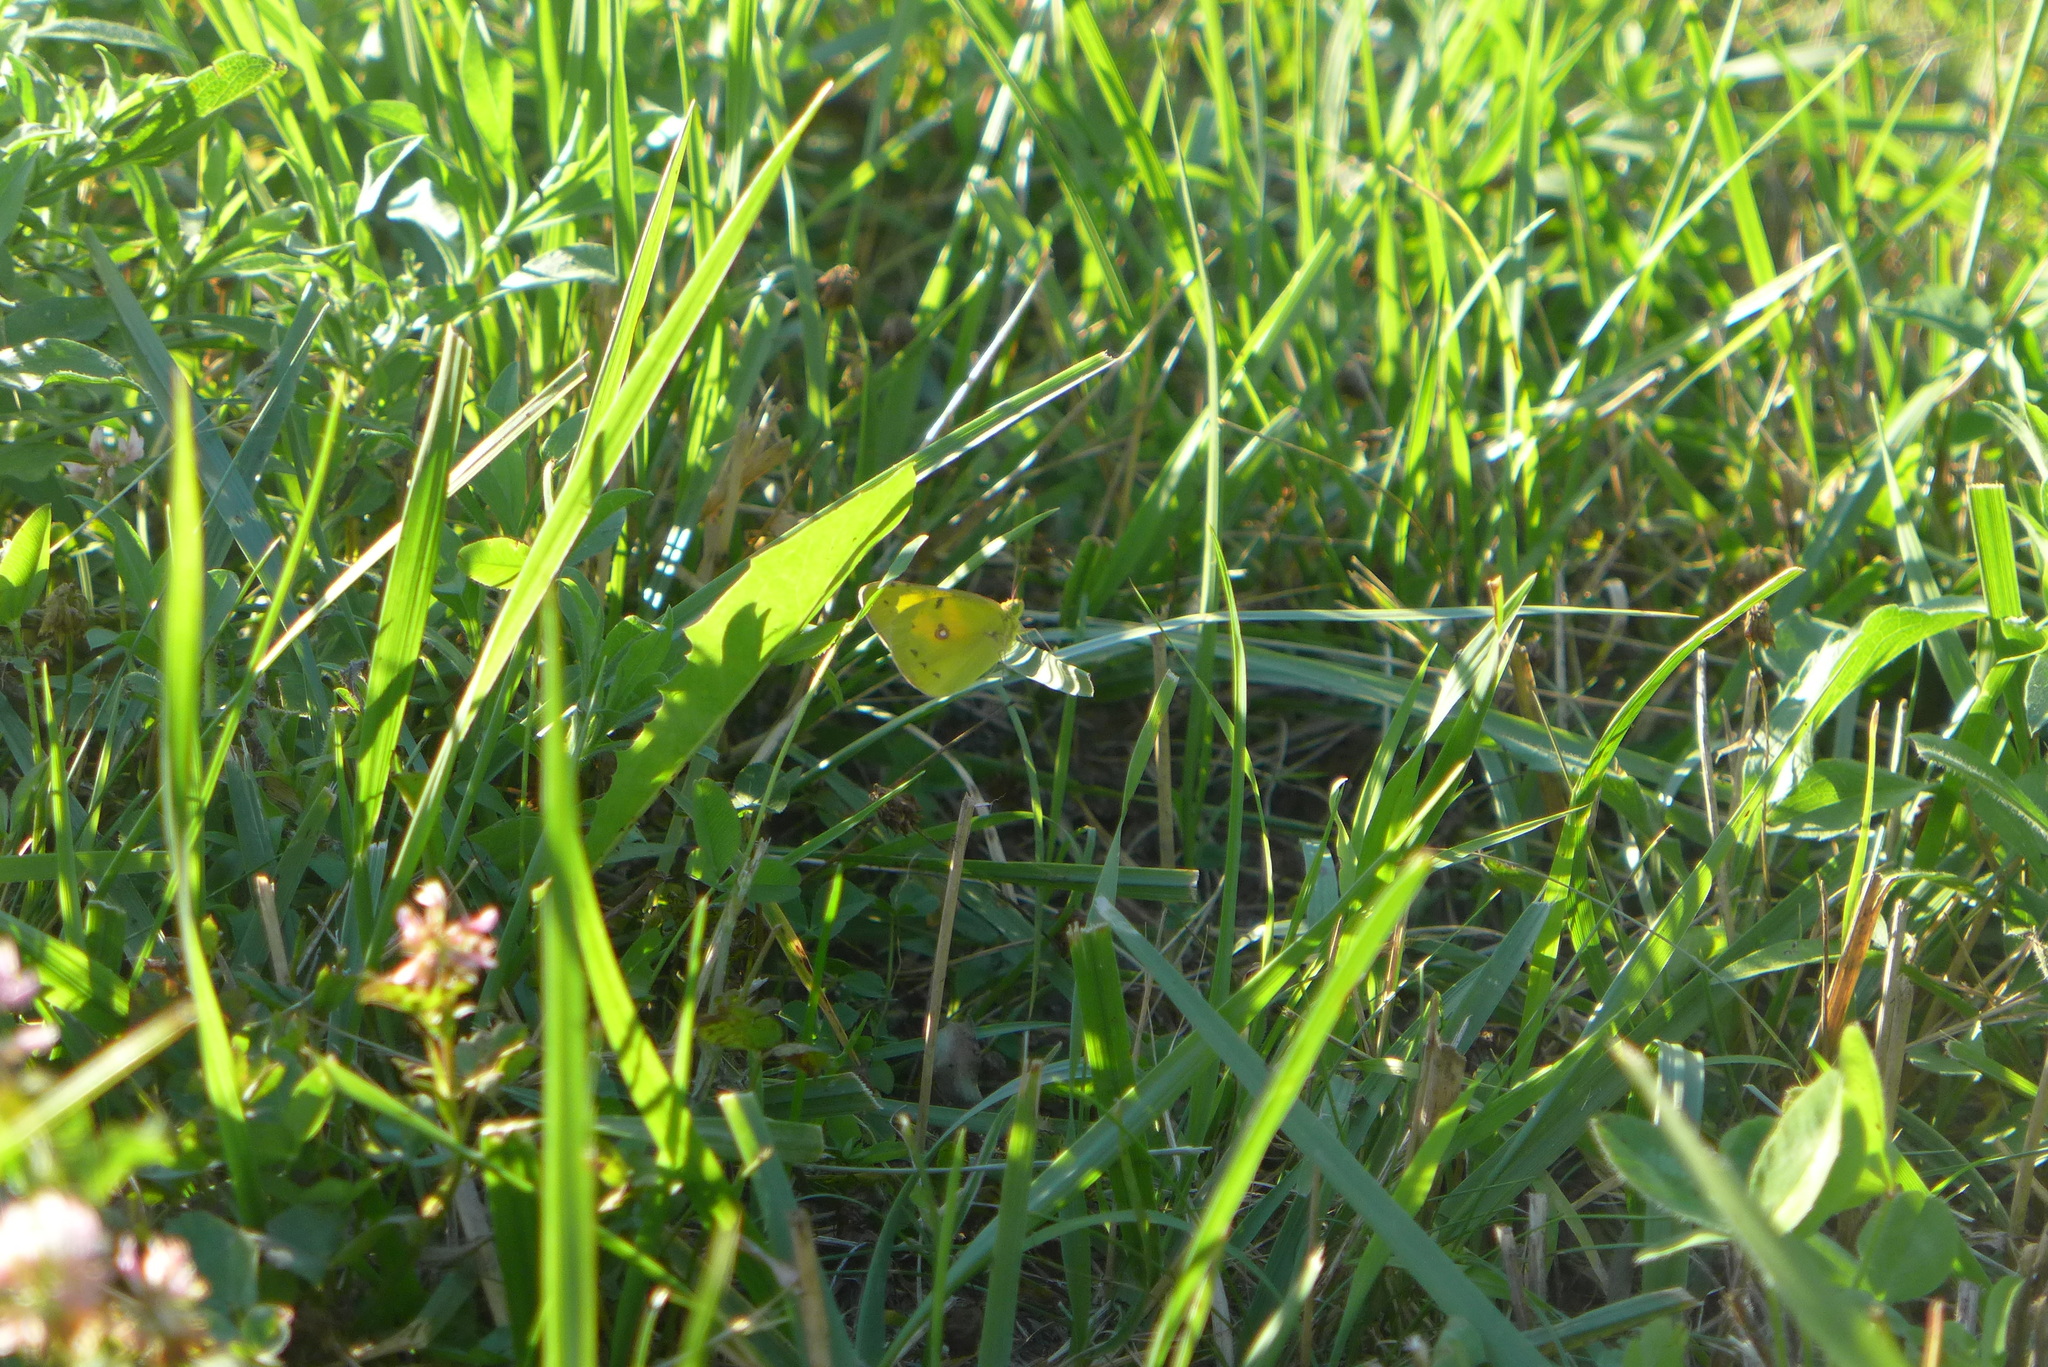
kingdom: Animalia
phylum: Arthropoda
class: Insecta
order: Lepidoptera
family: Pieridae
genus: Colias
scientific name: Colias eurytheme
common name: Alfalfa butterfly
